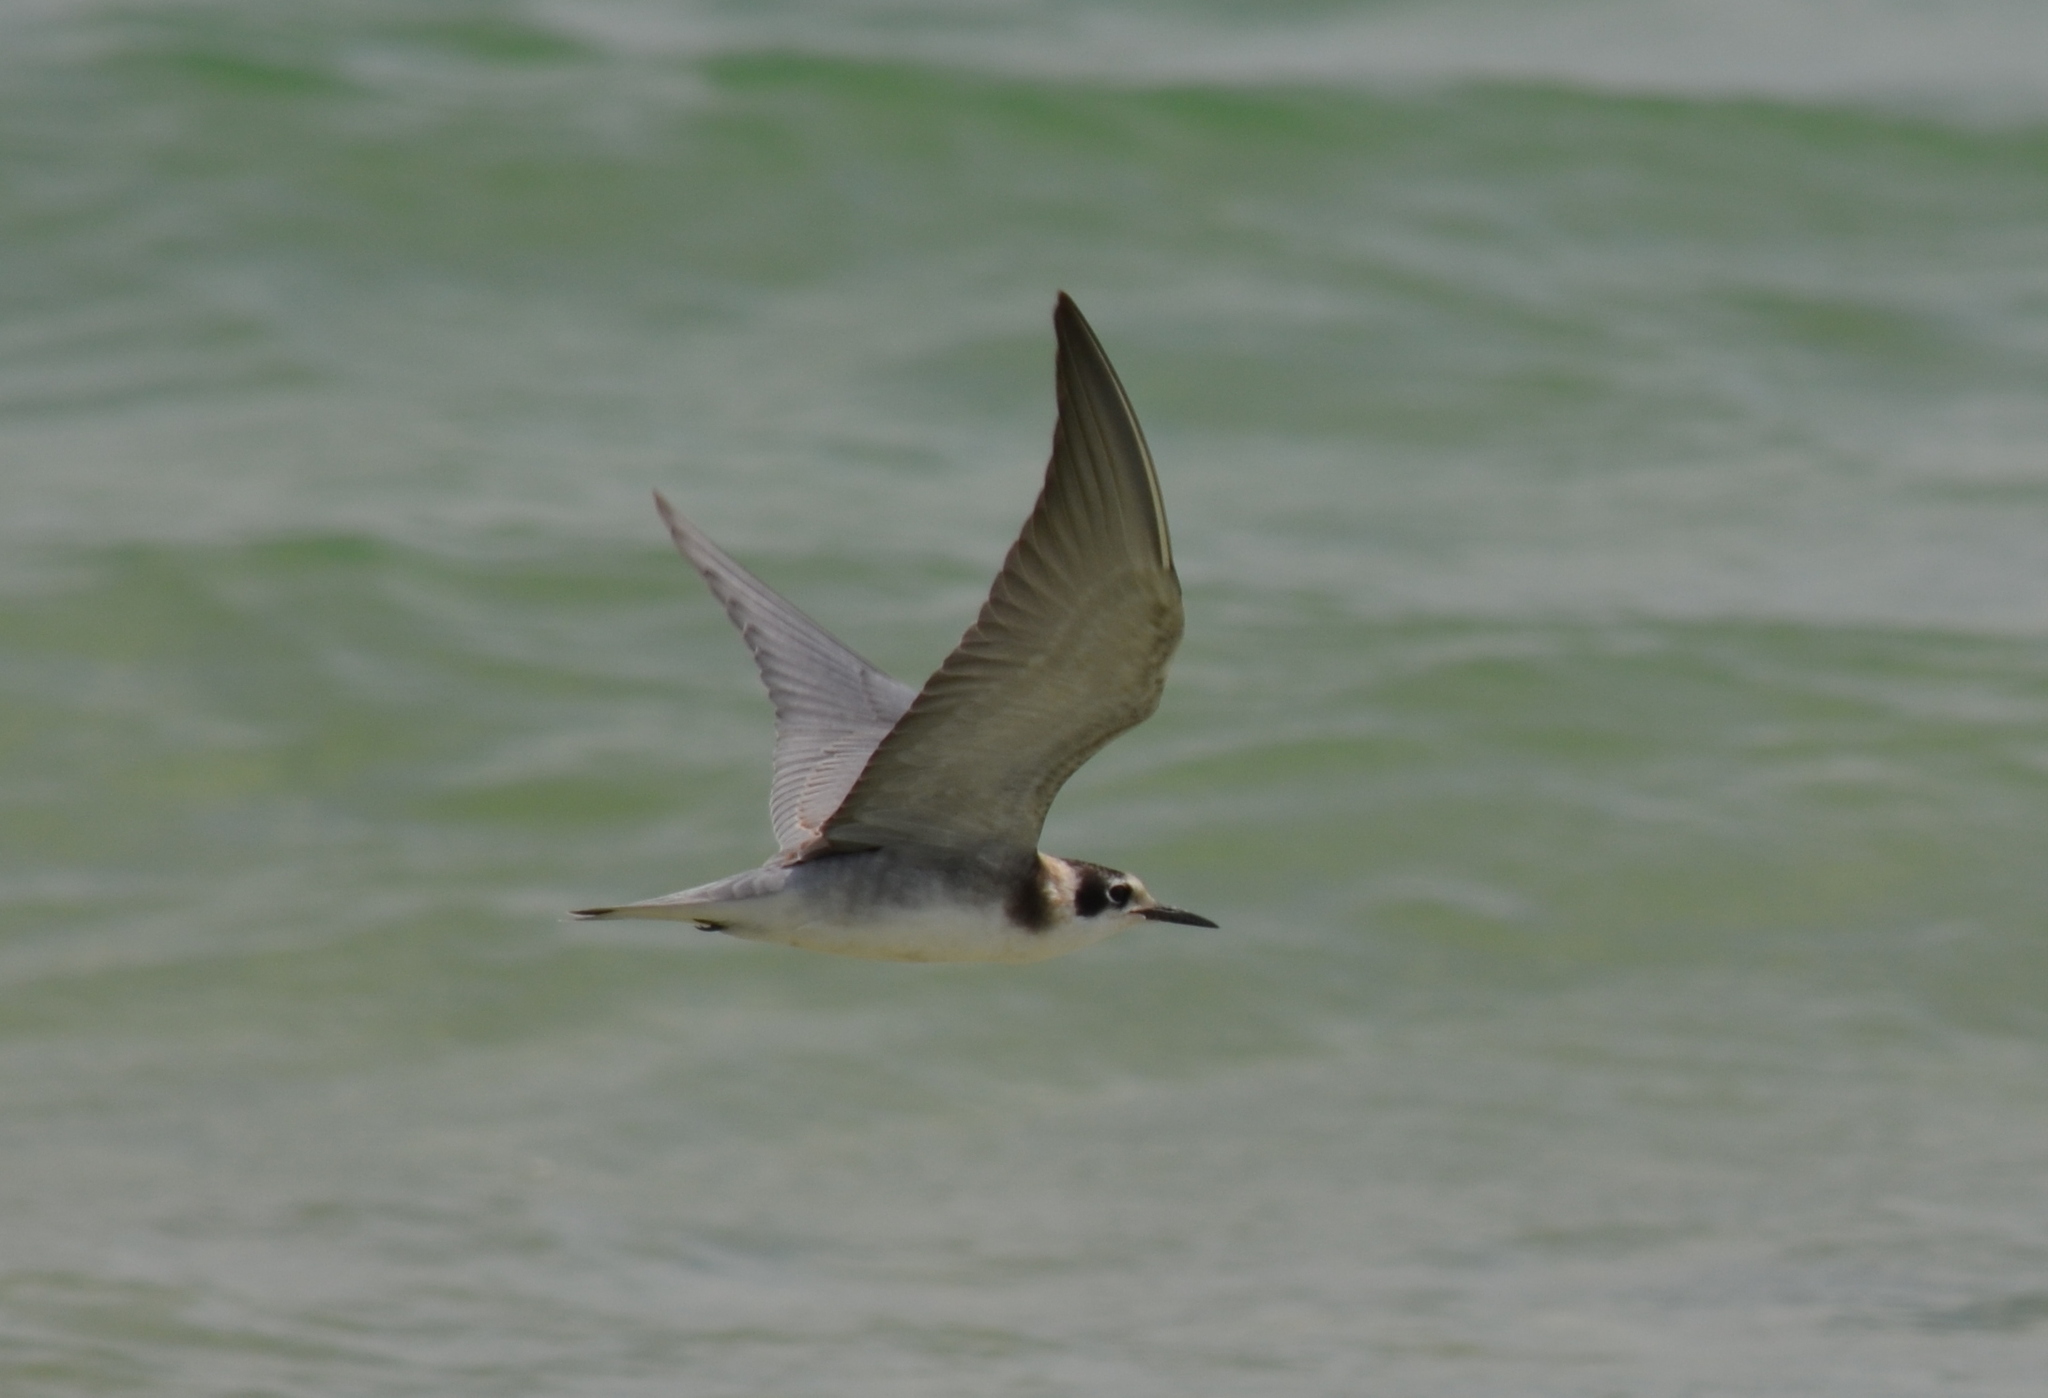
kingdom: Animalia
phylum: Chordata
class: Aves
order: Charadriiformes
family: Laridae
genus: Chlidonias
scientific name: Chlidonias niger
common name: Black tern
